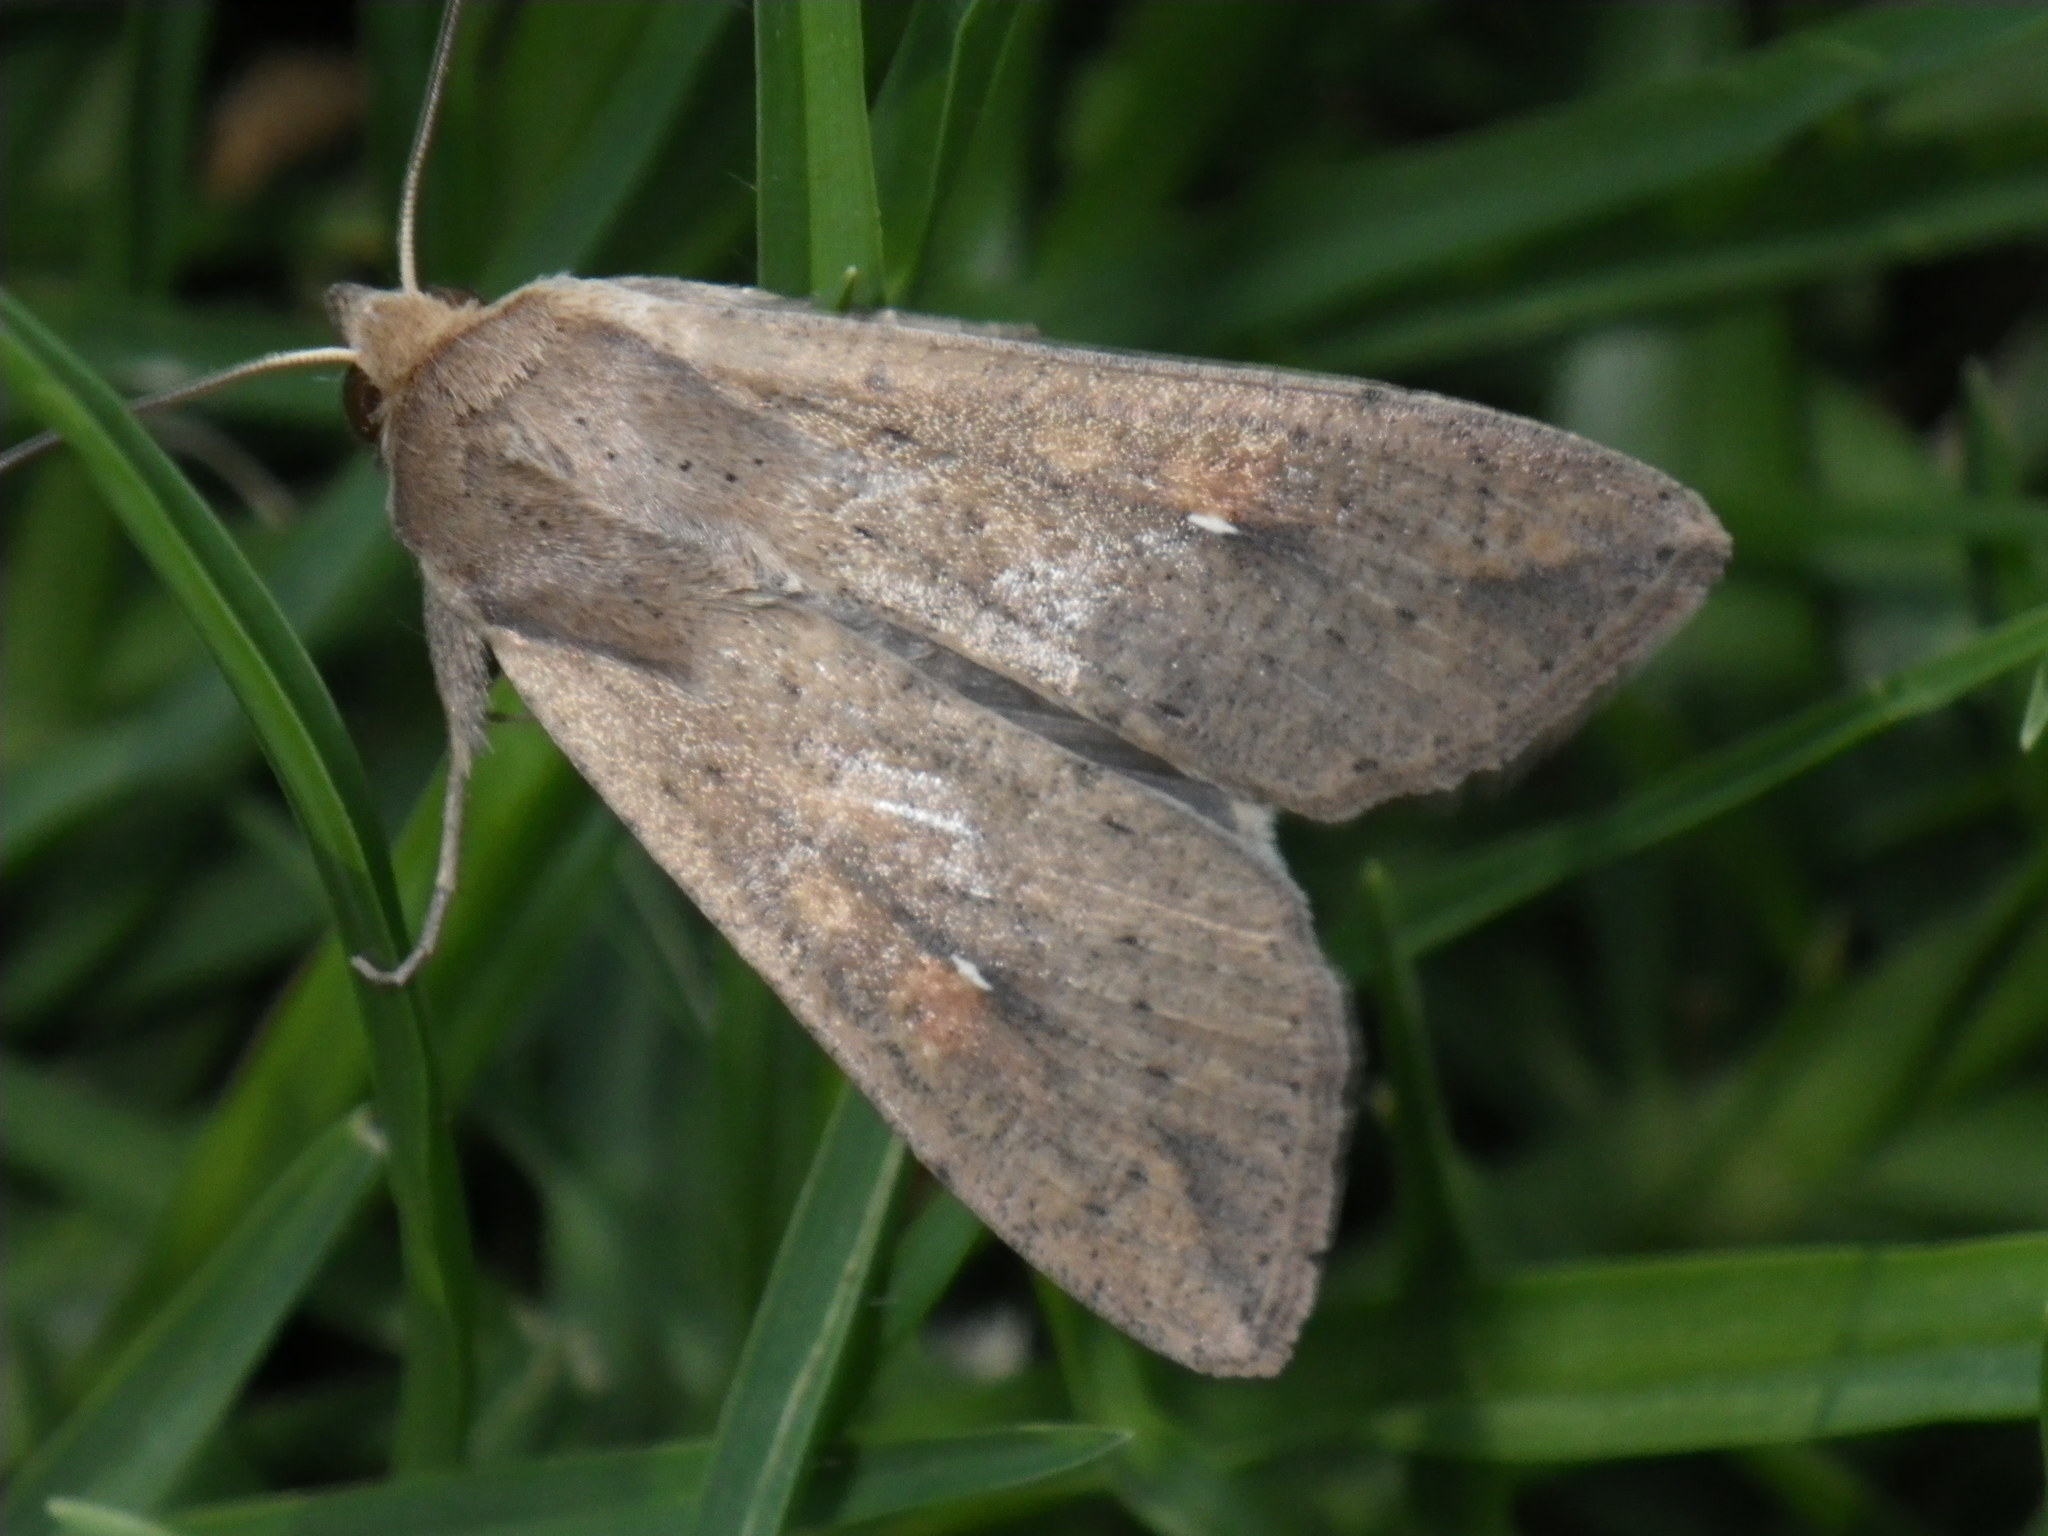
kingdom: Animalia
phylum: Arthropoda
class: Insecta
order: Lepidoptera
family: Noctuidae
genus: Mythimna
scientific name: Mythimna unipuncta
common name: White-speck
